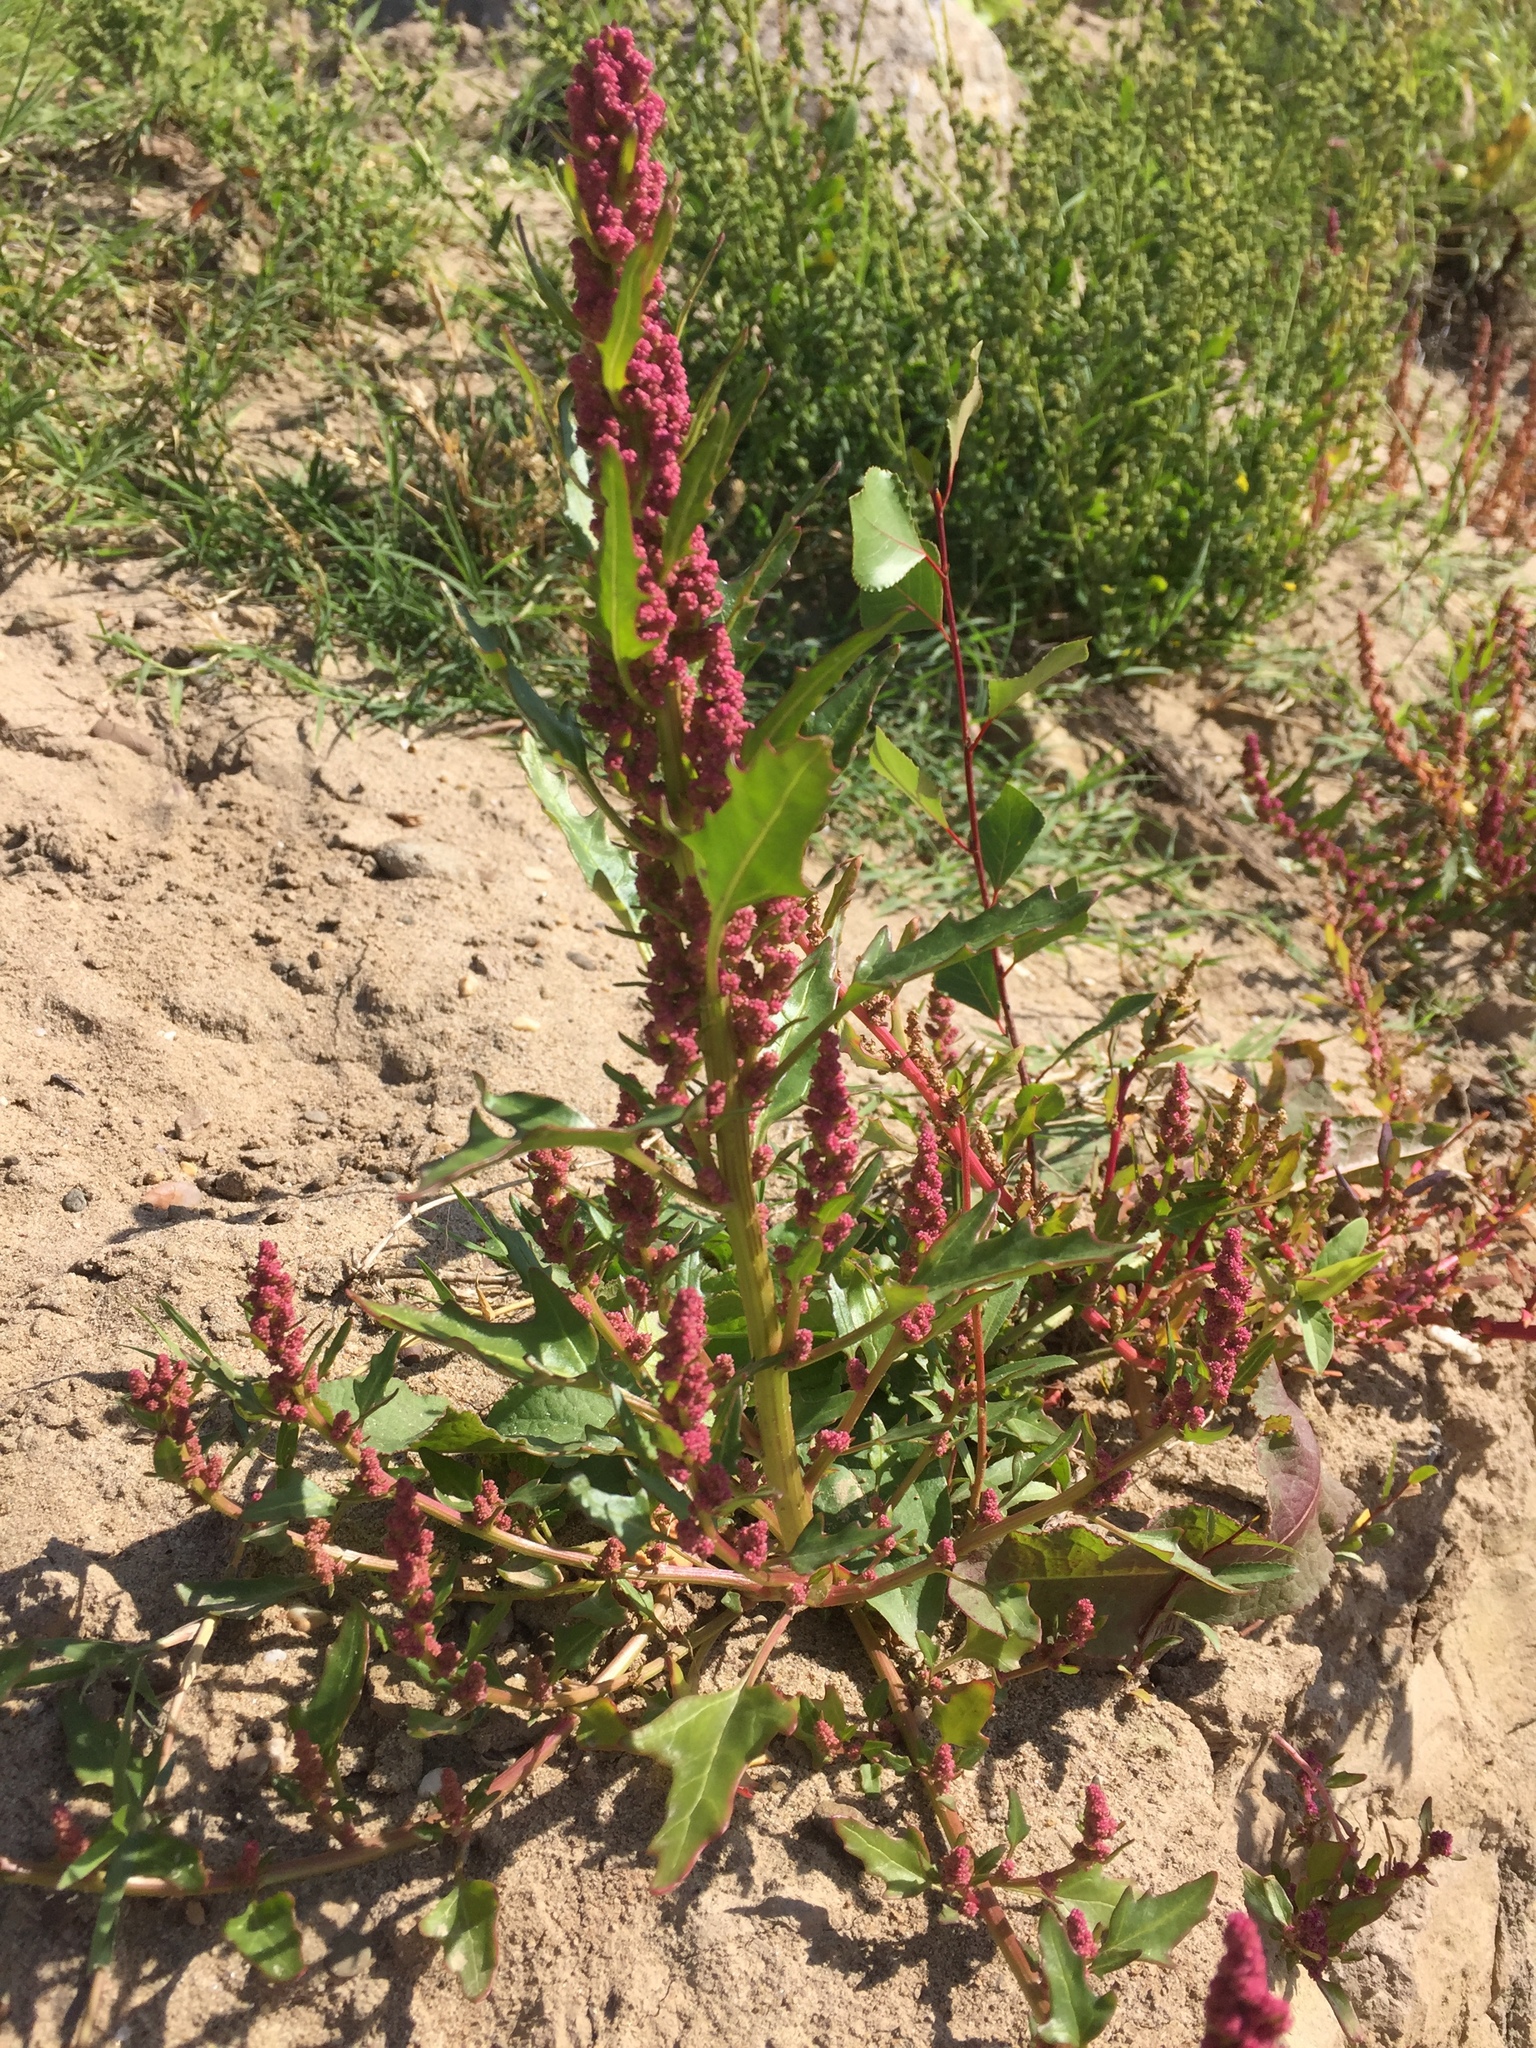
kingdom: Plantae
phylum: Tracheophyta
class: Magnoliopsida
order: Caryophyllales
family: Amaranthaceae
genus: Oxybasis
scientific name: Oxybasis rubra
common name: Red goosefoot
